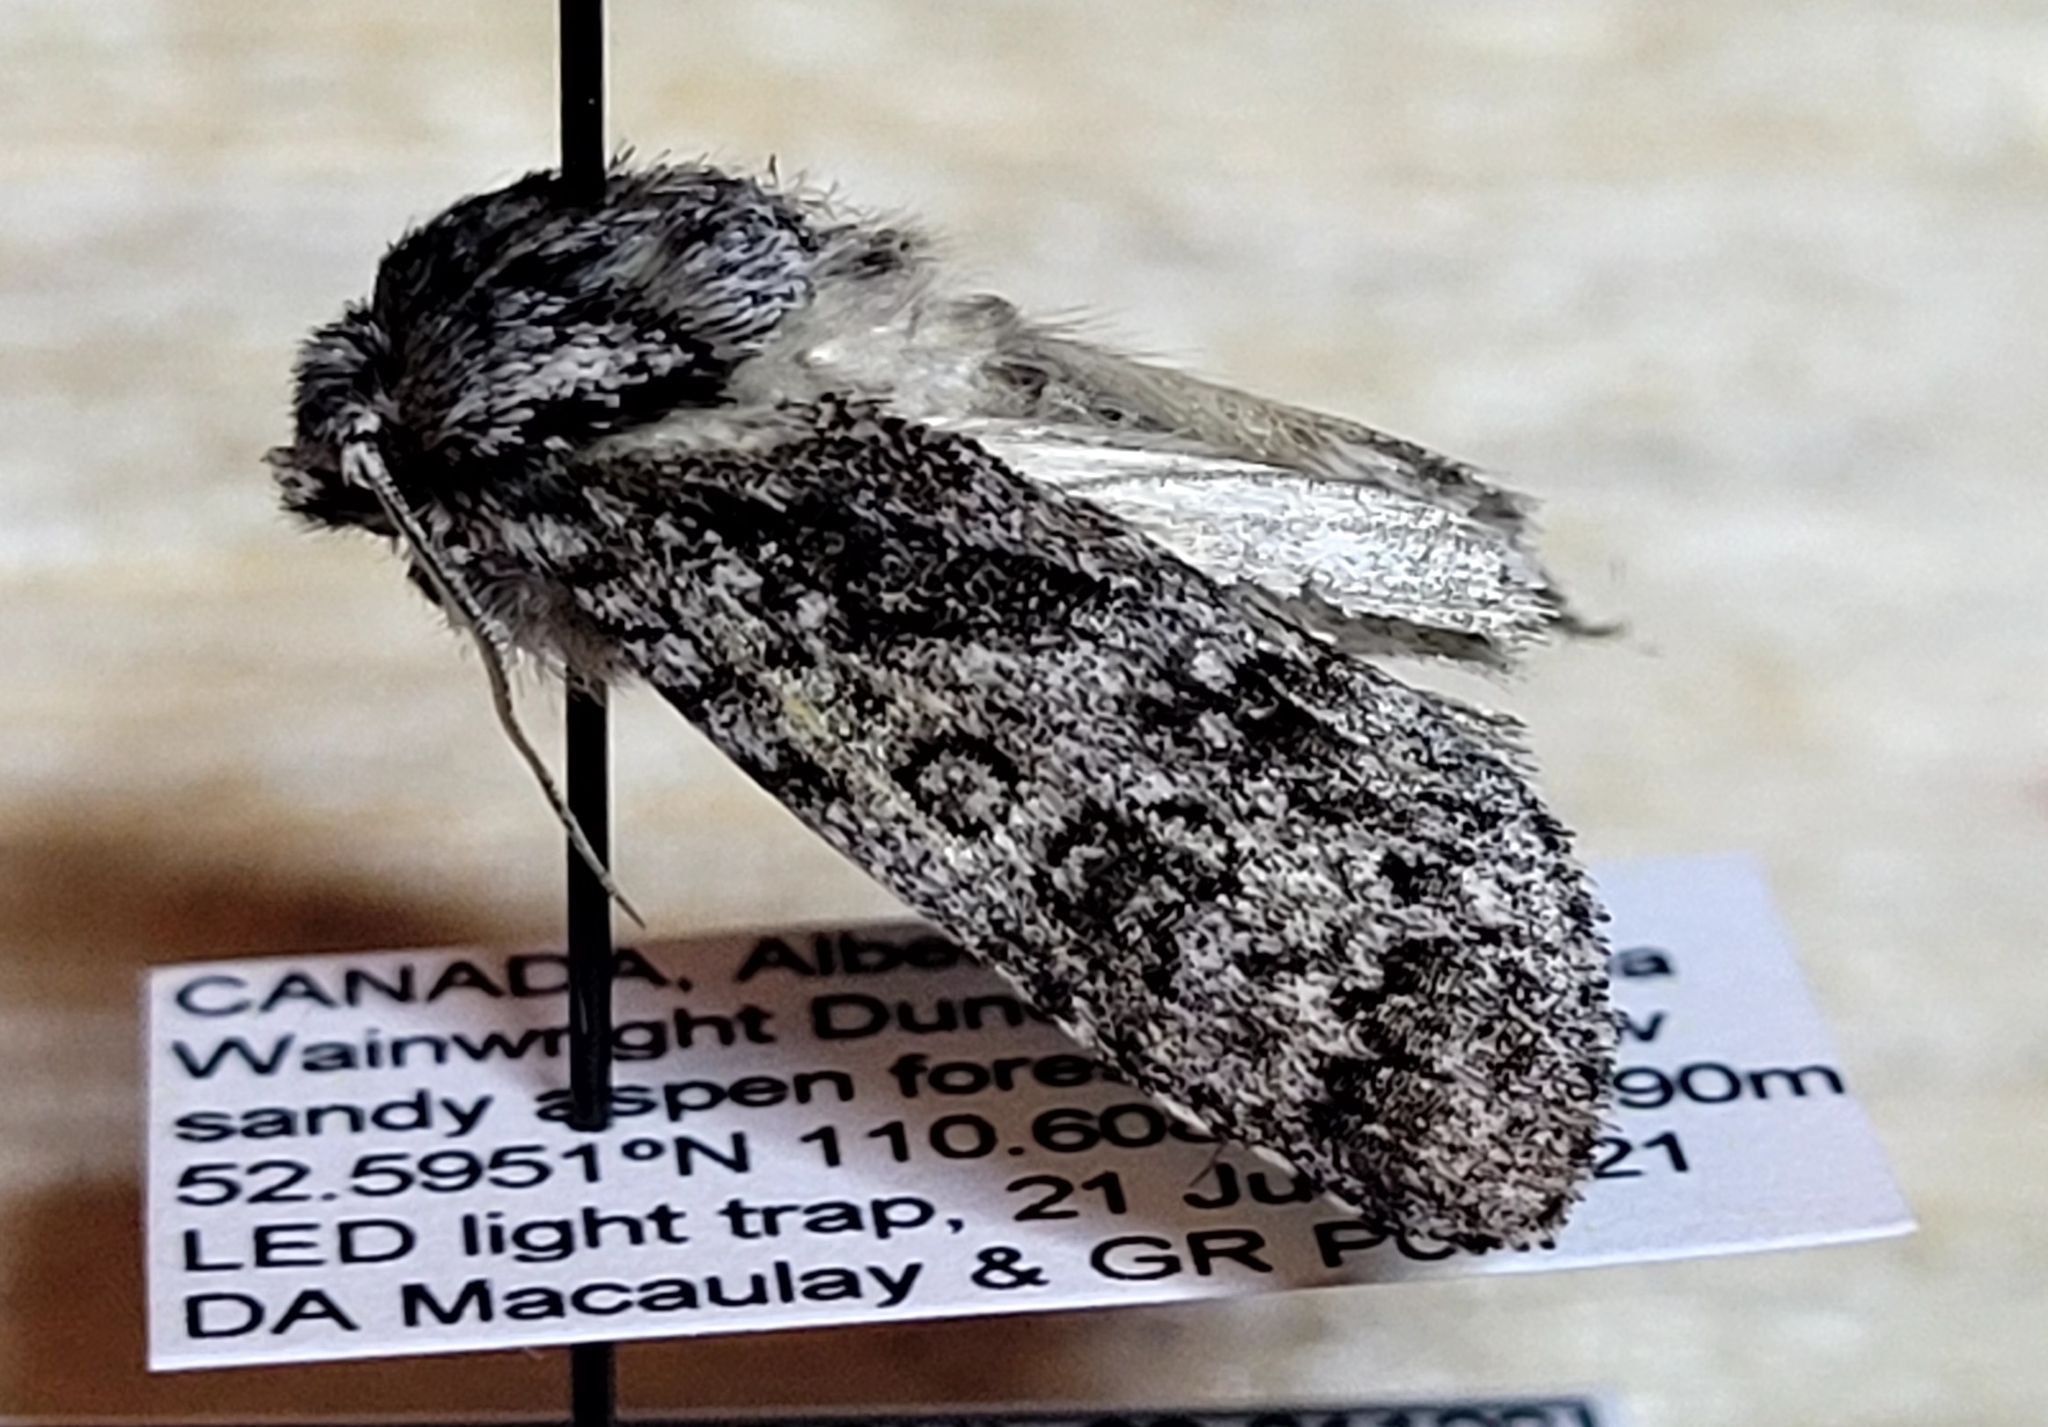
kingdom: Animalia
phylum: Arthropoda
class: Insecta
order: Lepidoptera
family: Noctuidae
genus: Acronicta
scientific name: Acronicta impressa
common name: Impressed dagger
